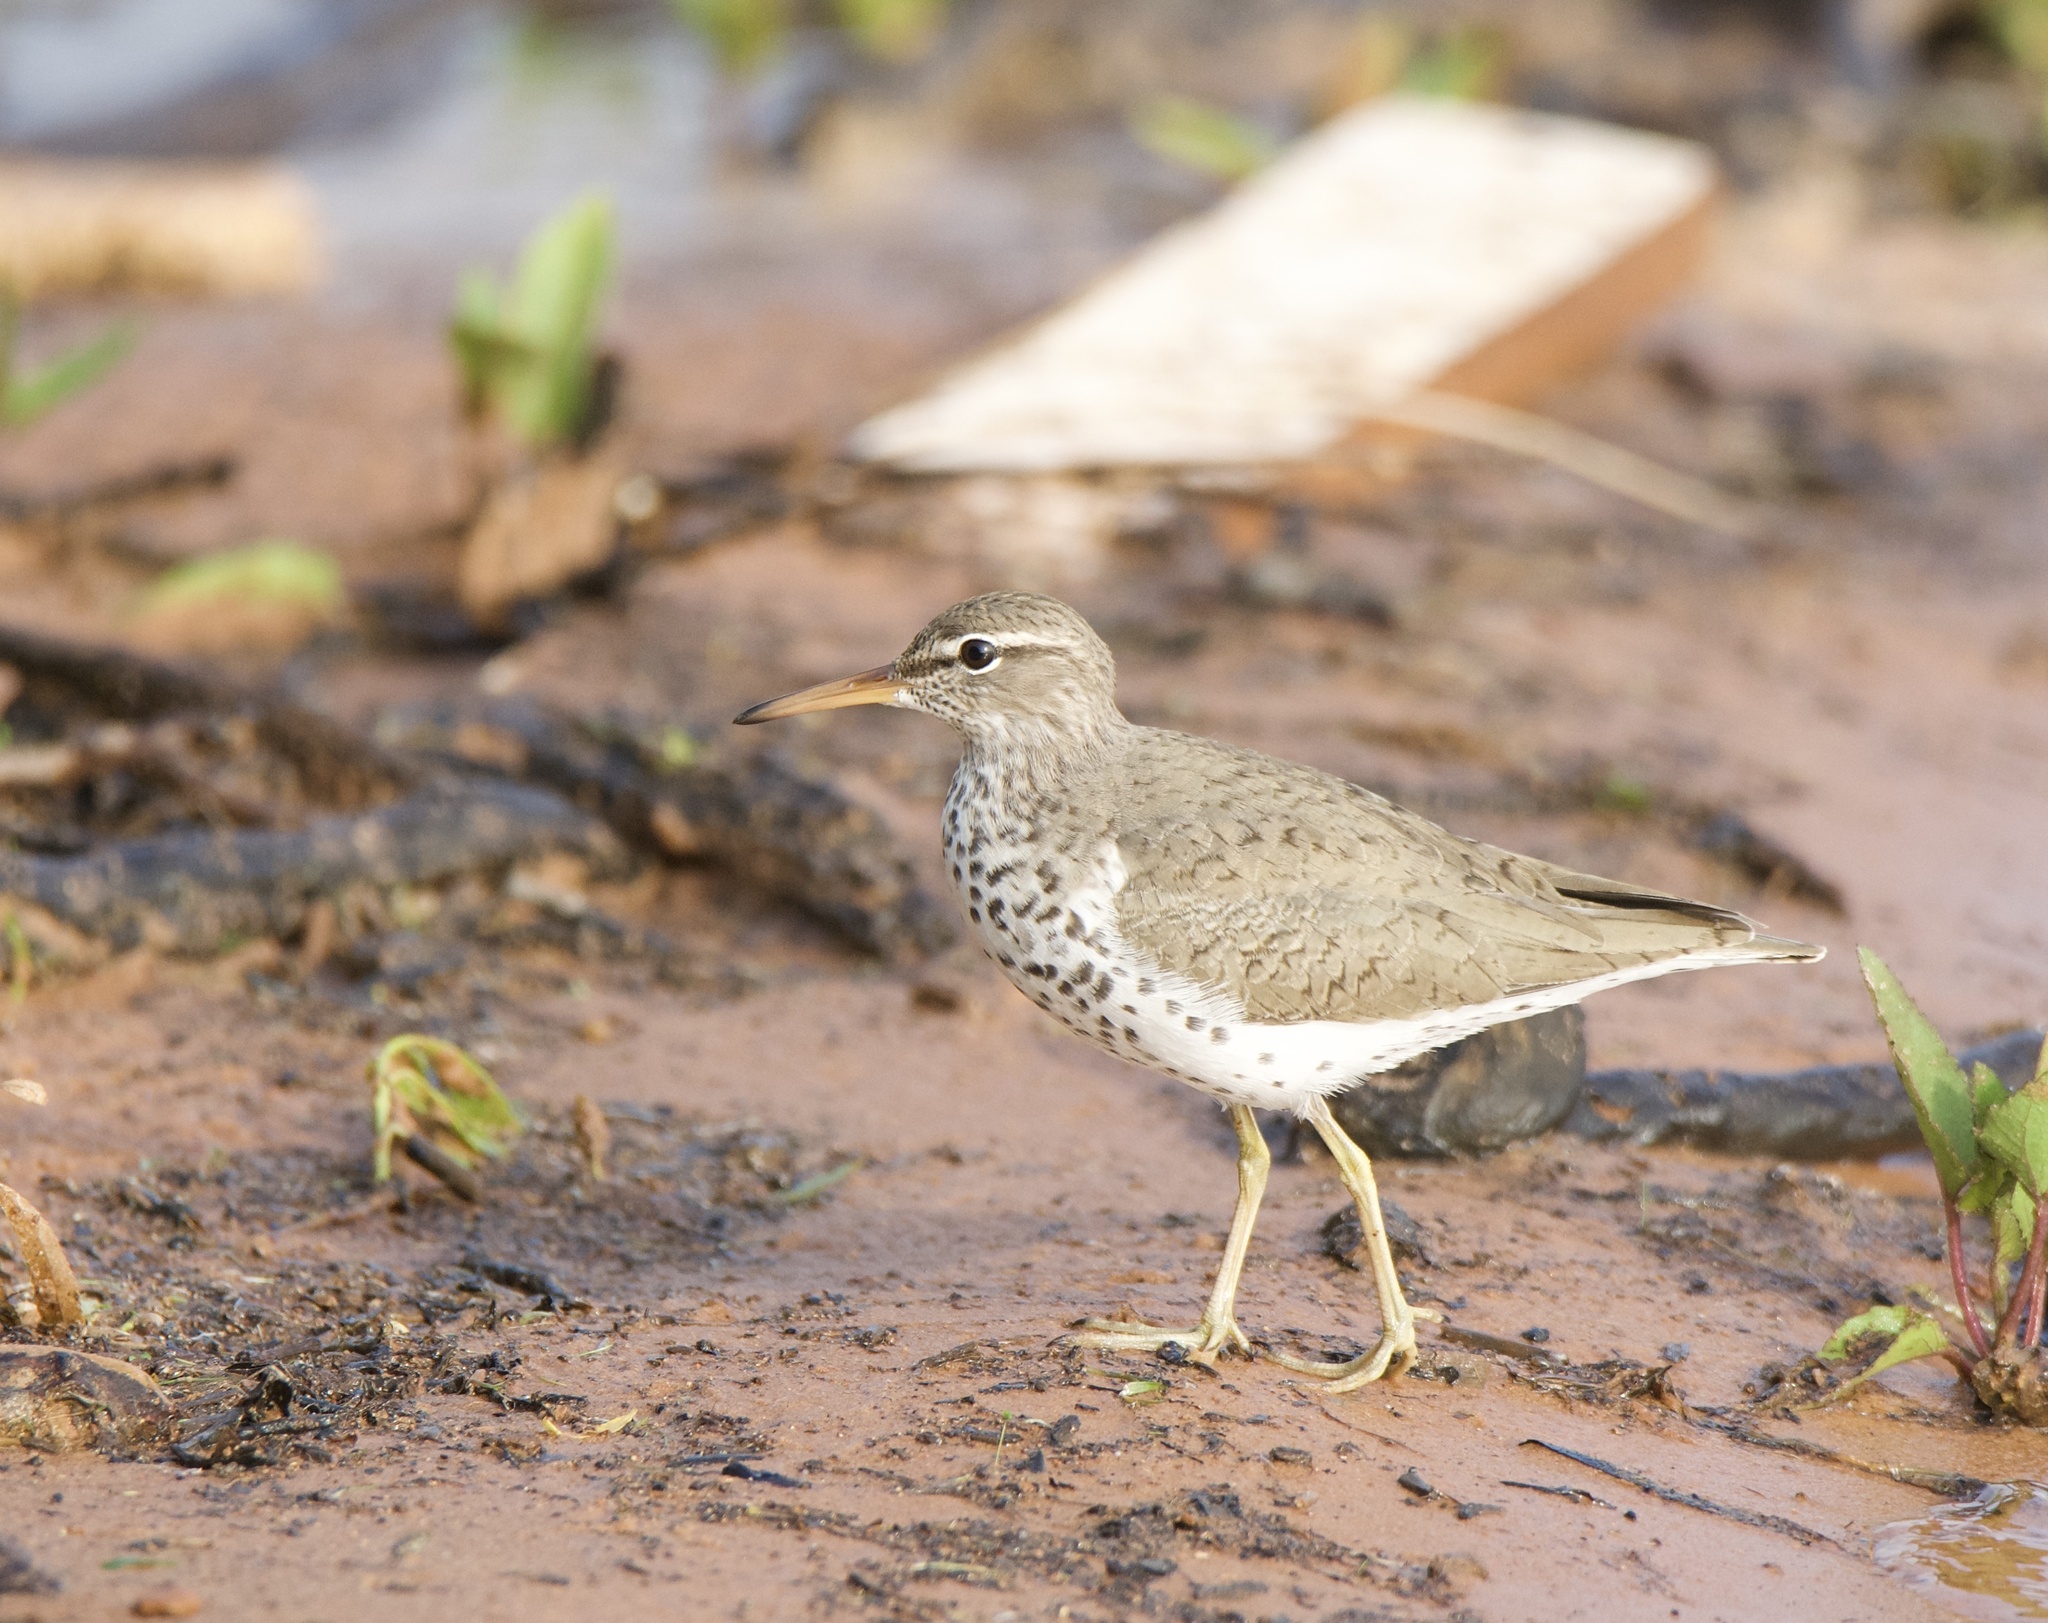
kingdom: Animalia
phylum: Chordata
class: Aves
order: Charadriiformes
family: Scolopacidae
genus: Actitis
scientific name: Actitis macularius
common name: Spotted sandpiper
